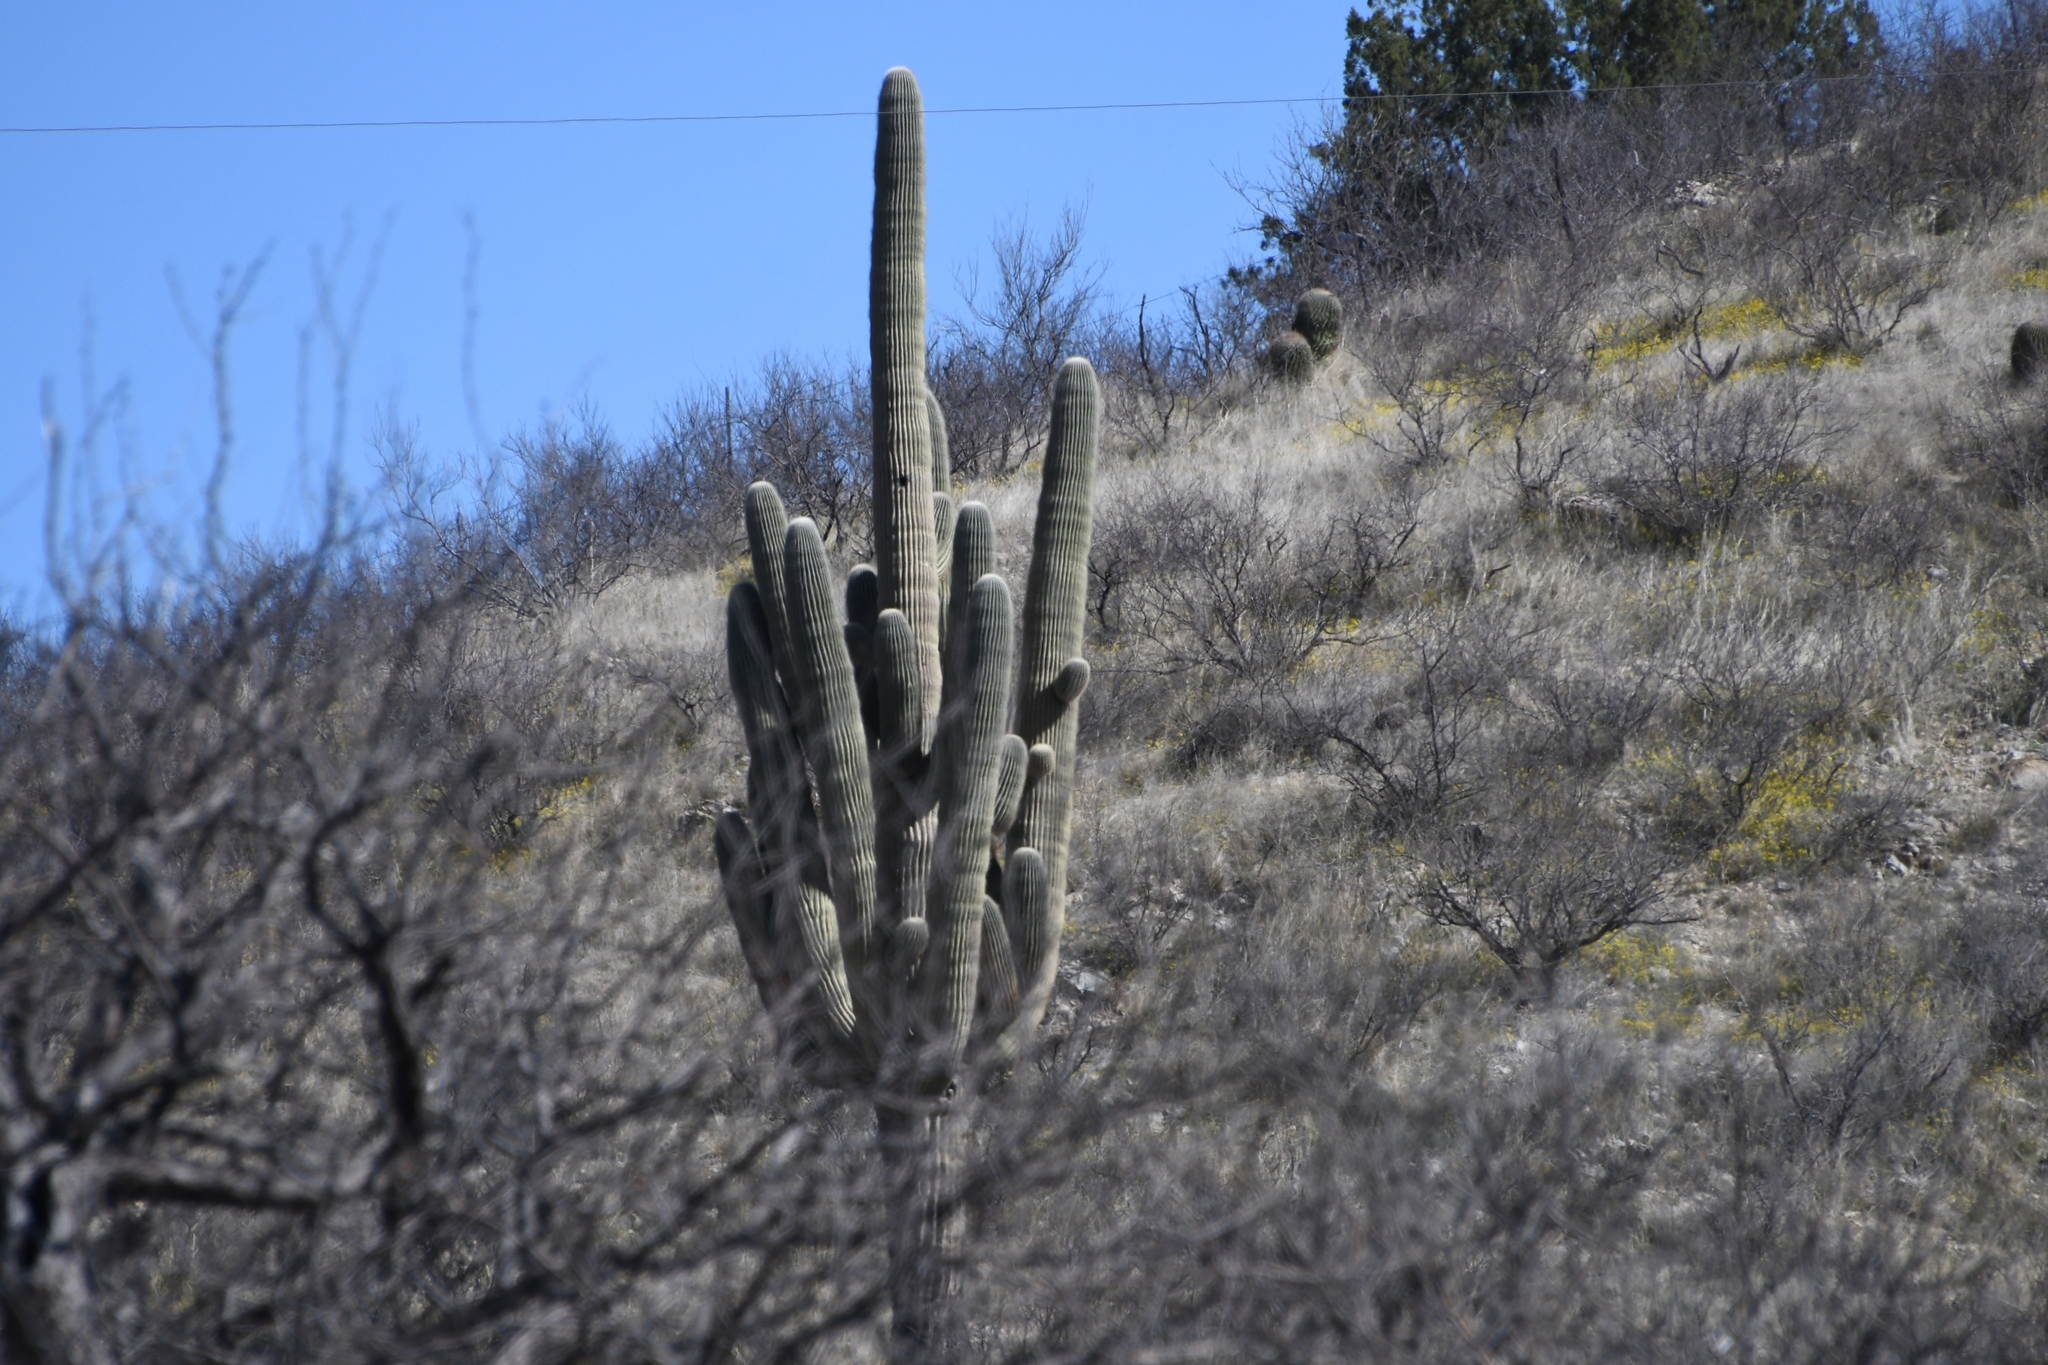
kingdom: Plantae
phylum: Tracheophyta
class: Magnoliopsida
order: Caryophyllales
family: Cactaceae
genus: Carnegiea
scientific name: Carnegiea gigantea
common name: Saguaro
